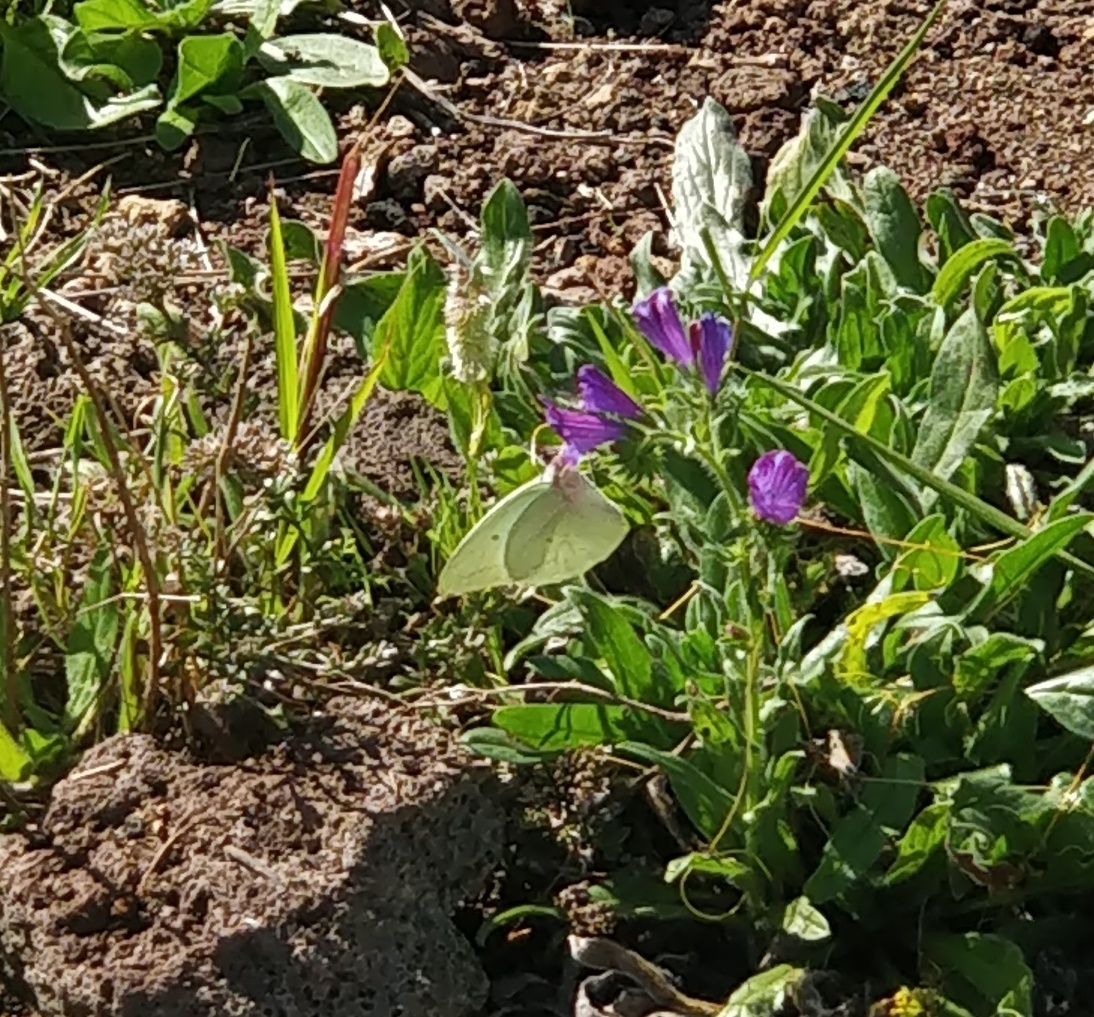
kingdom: Animalia
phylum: Arthropoda
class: Insecta
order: Lepidoptera
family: Pieridae
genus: Catopsilia
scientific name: Catopsilia florella
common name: African migrant
